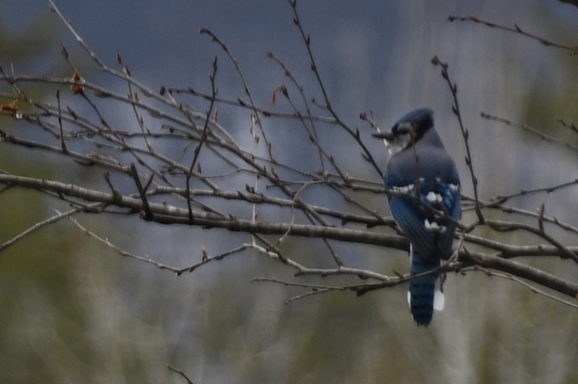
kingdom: Animalia
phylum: Chordata
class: Aves
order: Passeriformes
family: Corvidae
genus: Cyanocitta
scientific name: Cyanocitta cristata
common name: Blue jay
